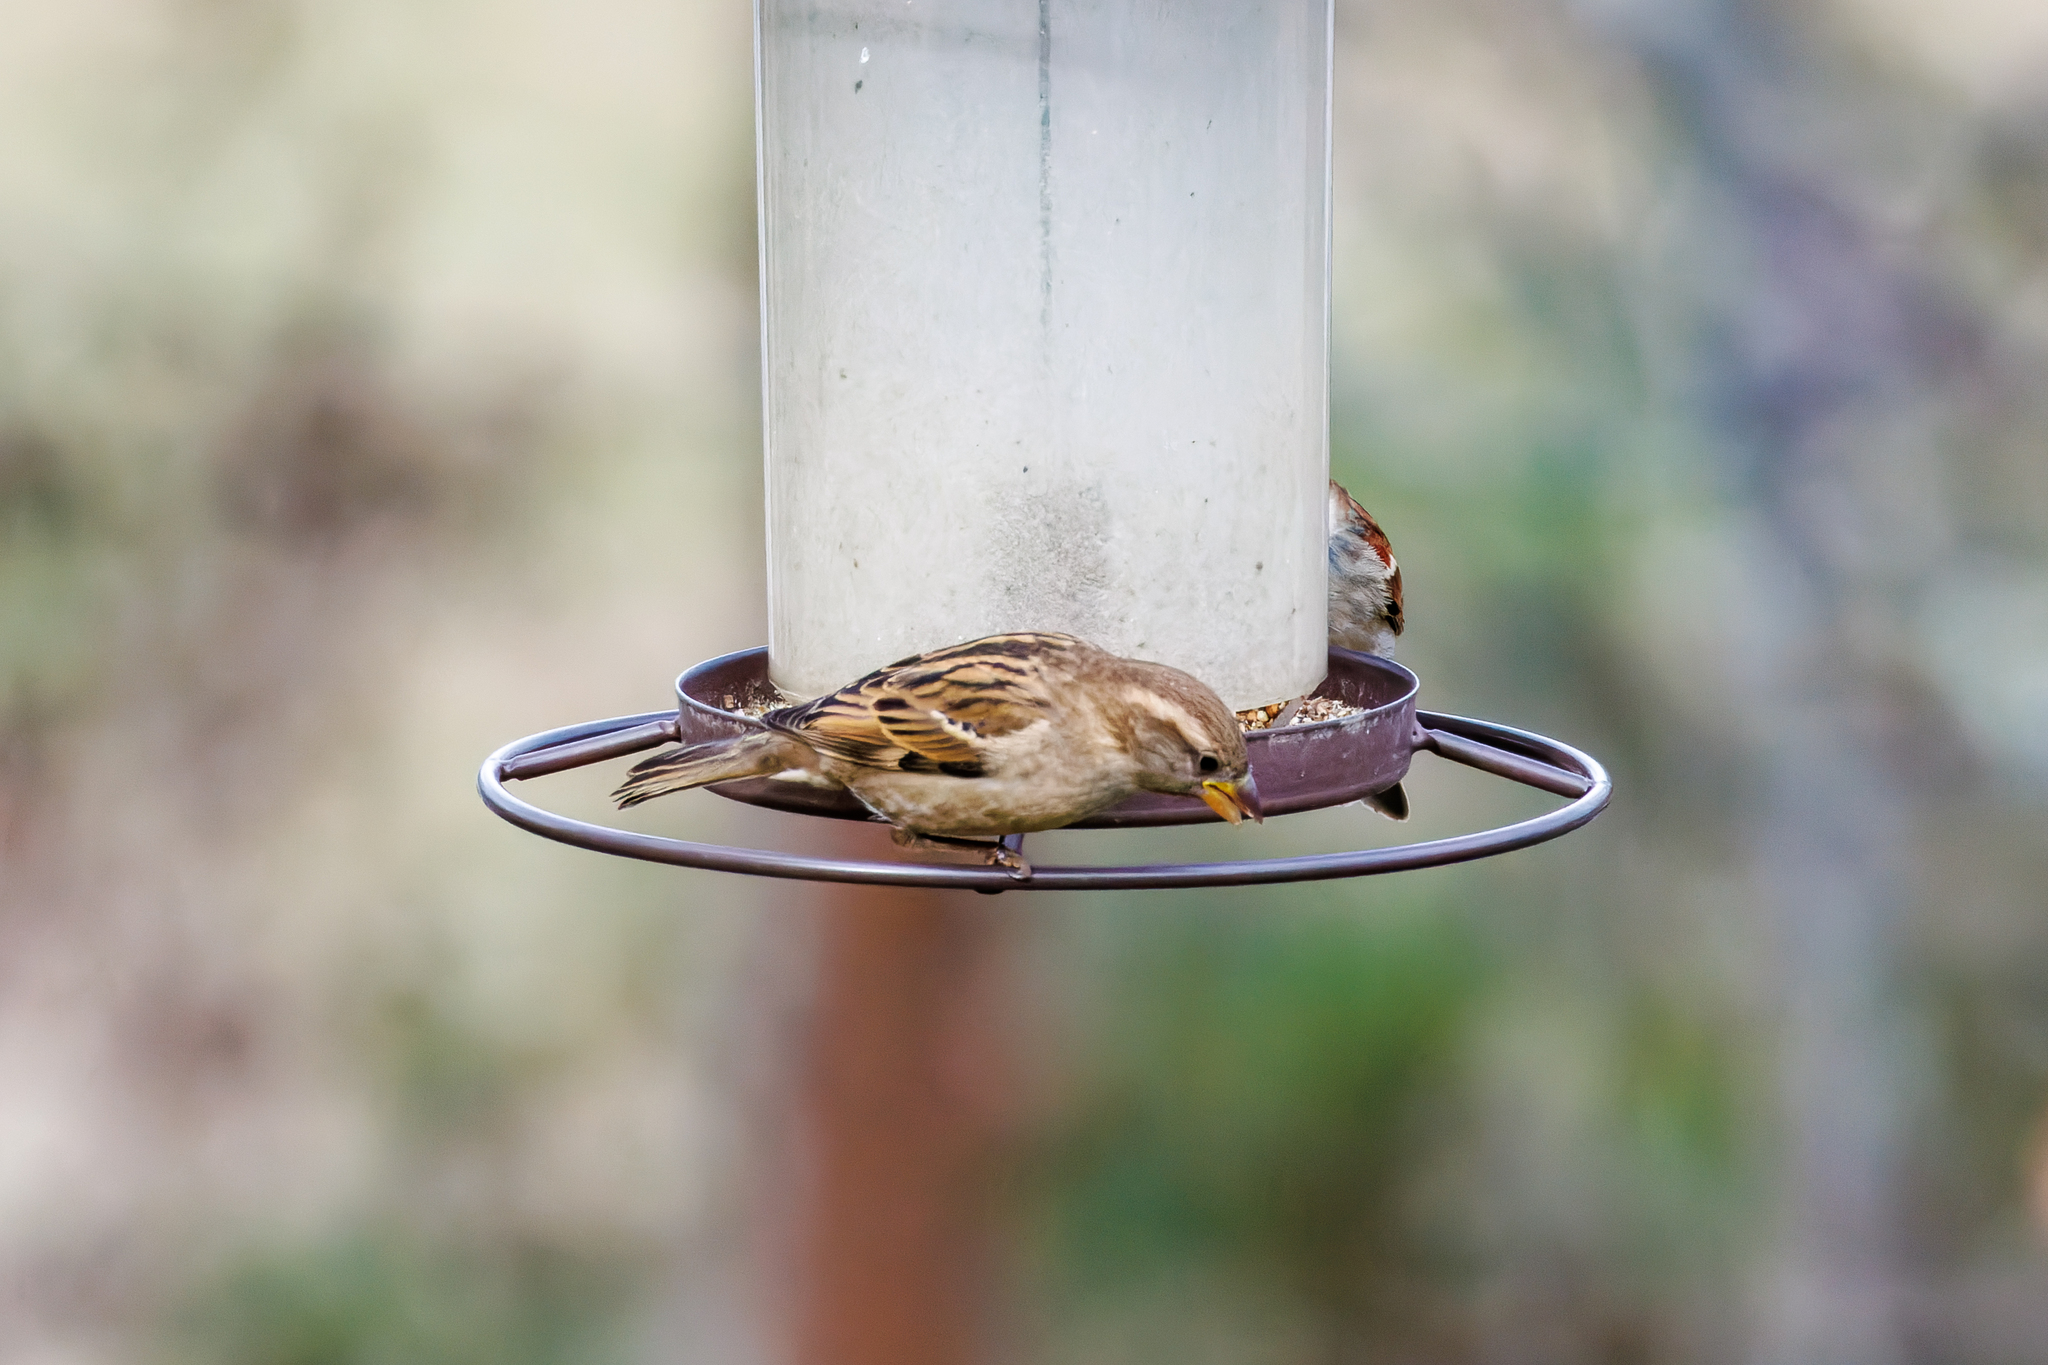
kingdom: Animalia
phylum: Chordata
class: Aves
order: Passeriformes
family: Passeridae
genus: Passer
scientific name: Passer domesticus
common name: House sparrow
